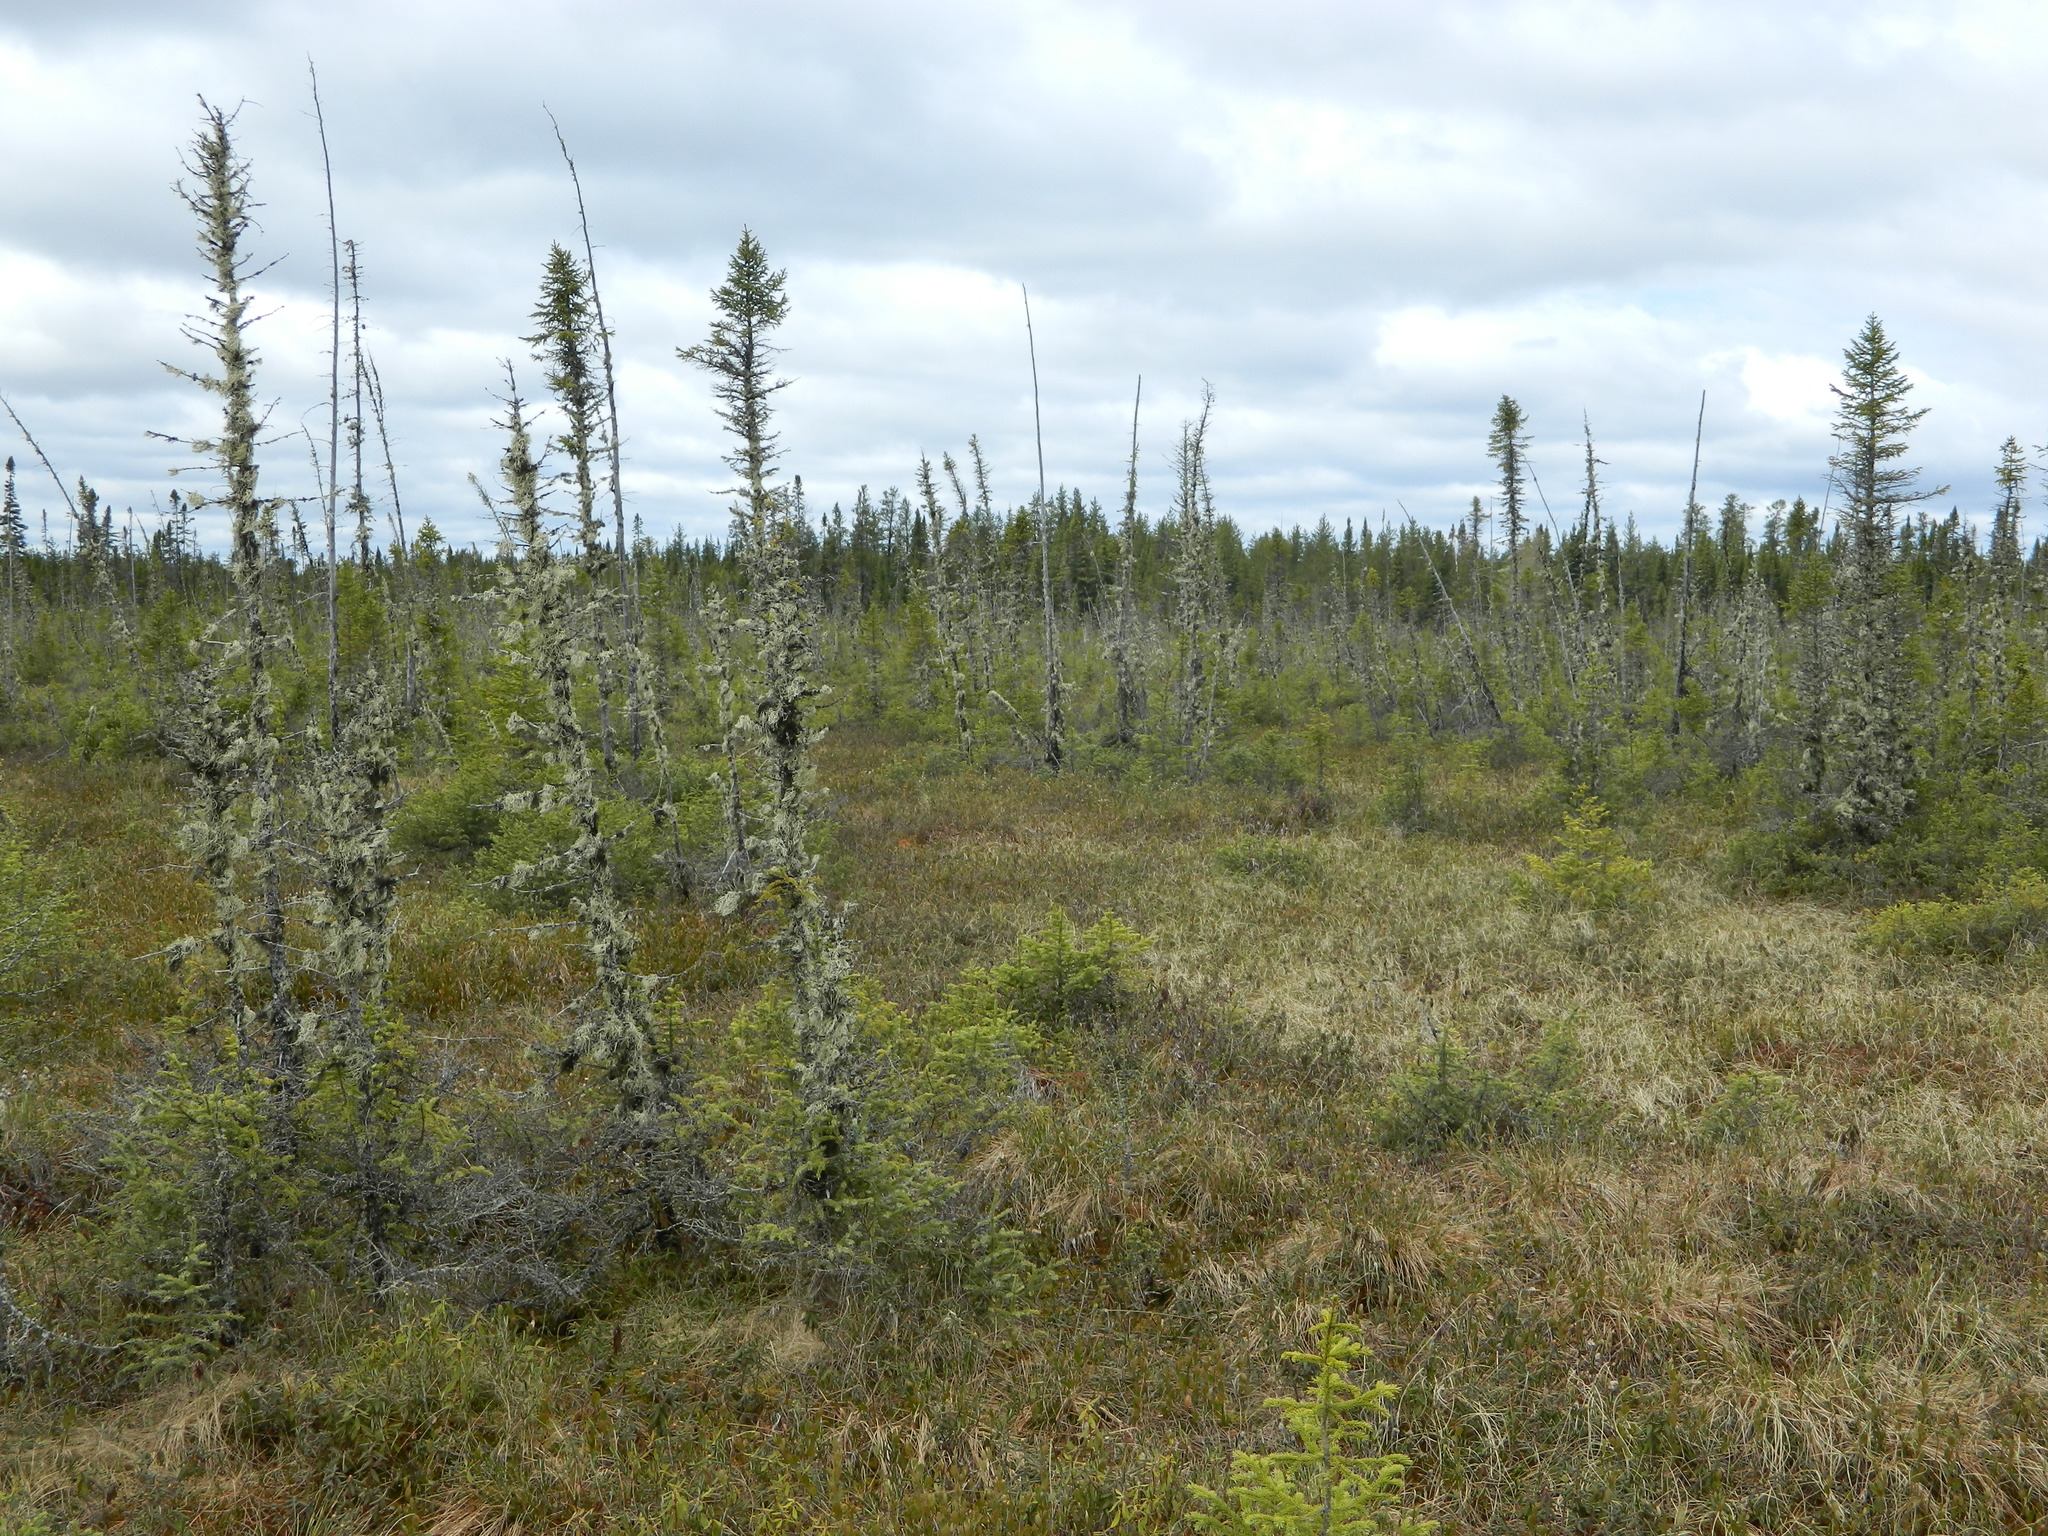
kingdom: Plantae
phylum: Tracheophyta
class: Pinopsida
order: Pinales
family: Pinaceae
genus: Picea
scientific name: Picea mariana
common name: Black spruce
